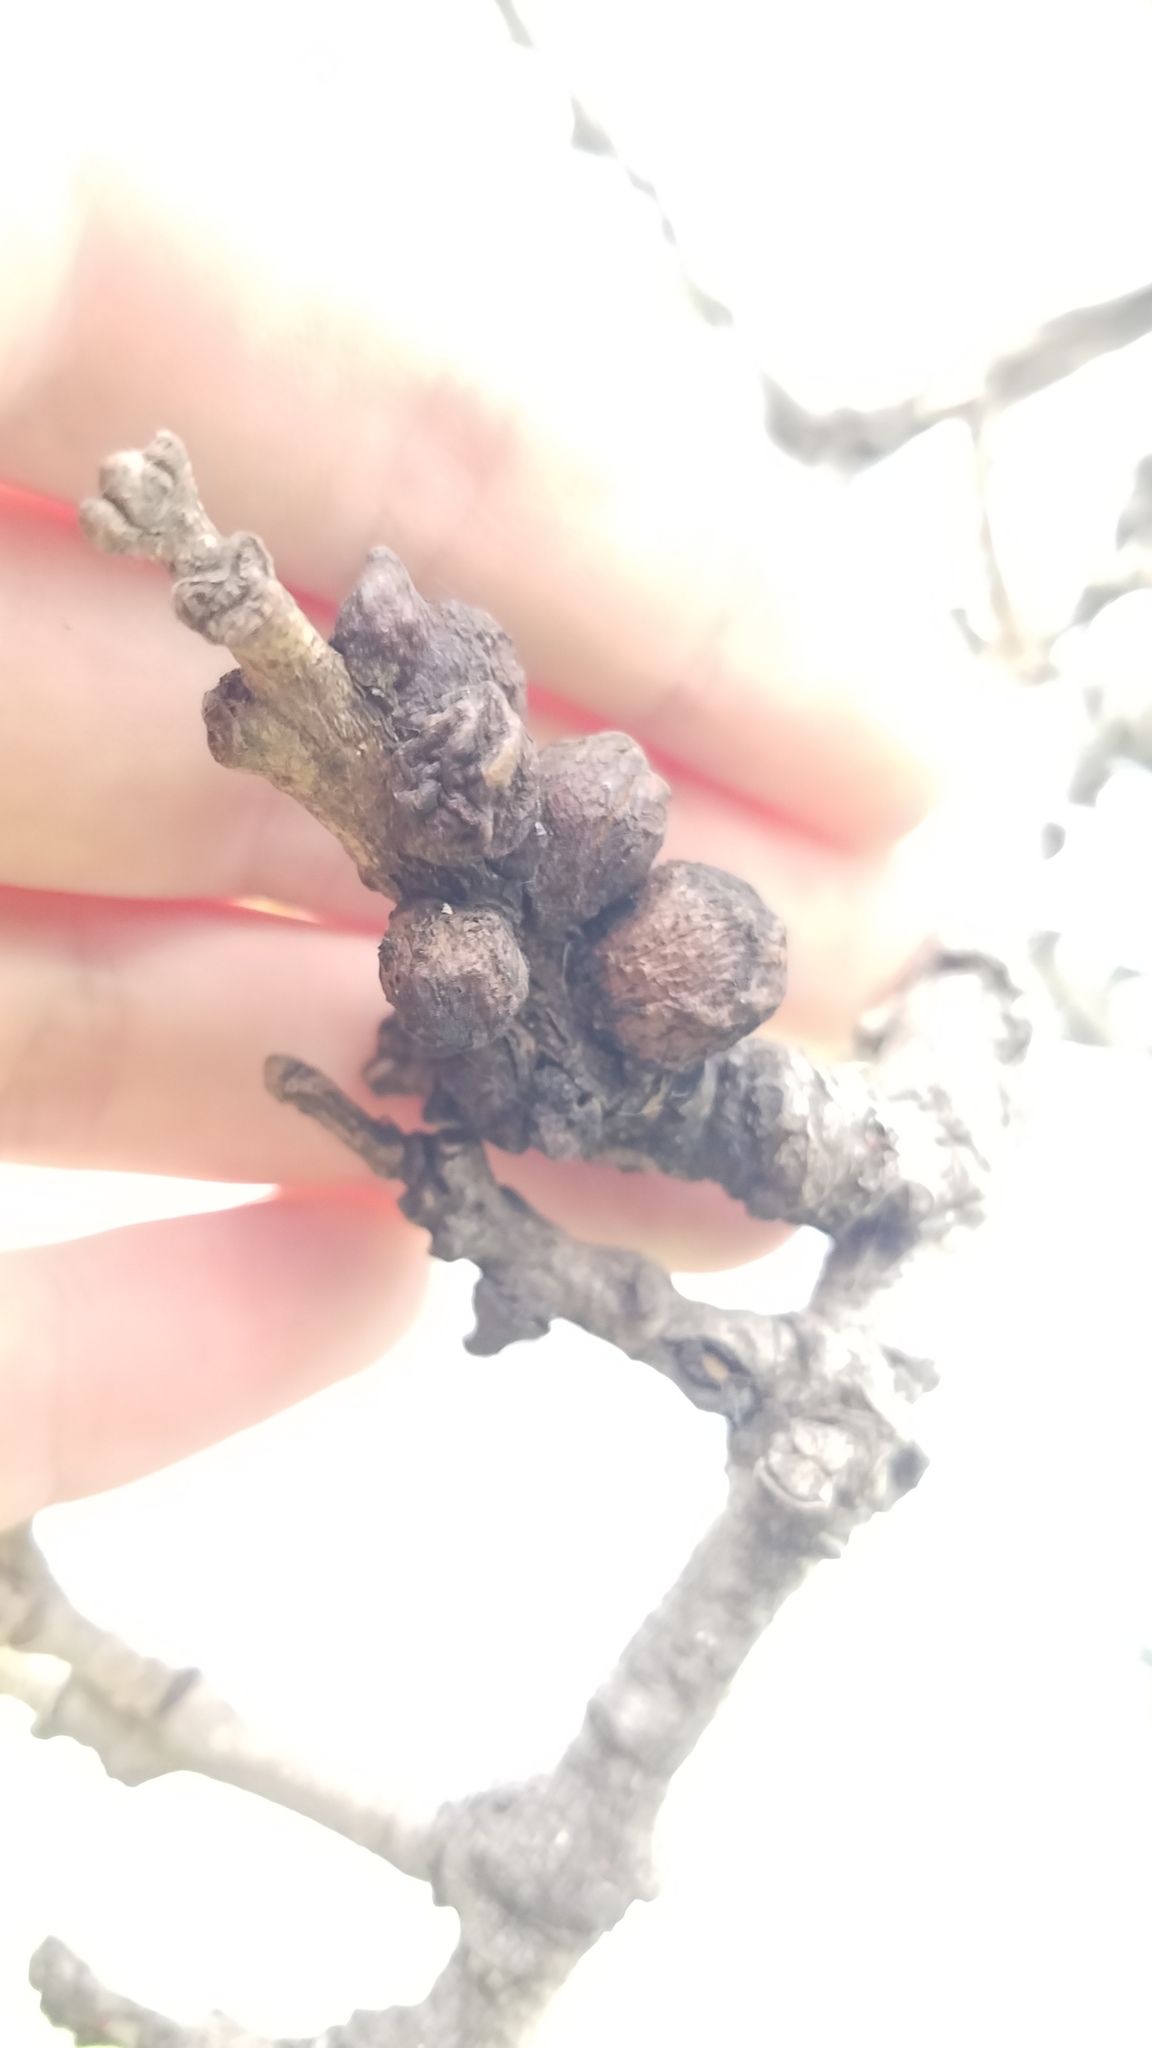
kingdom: Animalia
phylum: Arthropoda
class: Insecta
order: Hymenoptera
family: Cynipidae
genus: Disholcaspis
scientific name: Disholcaspis
